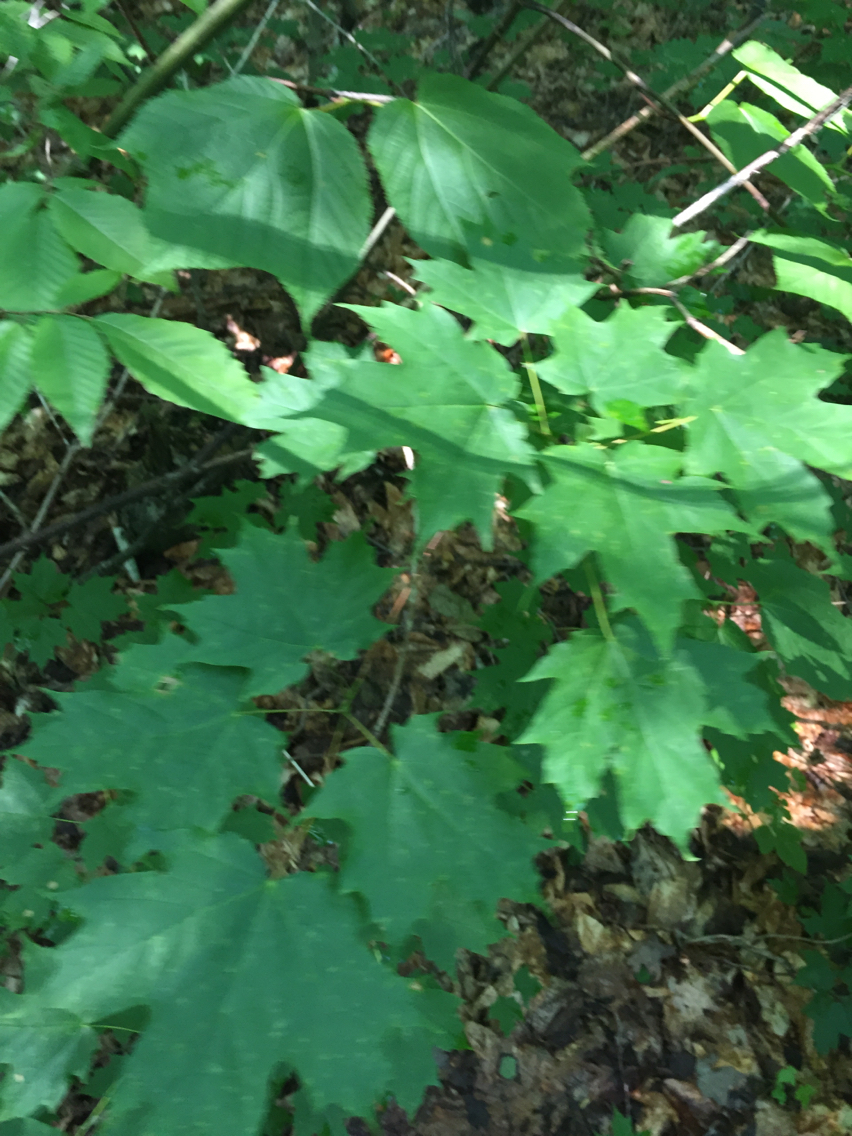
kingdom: Plantae
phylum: Tracheophyta
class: Magnoliopsida
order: Sapindales
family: Sapindaceae
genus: Acer
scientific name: Acer saccharum
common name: Sugar maple
